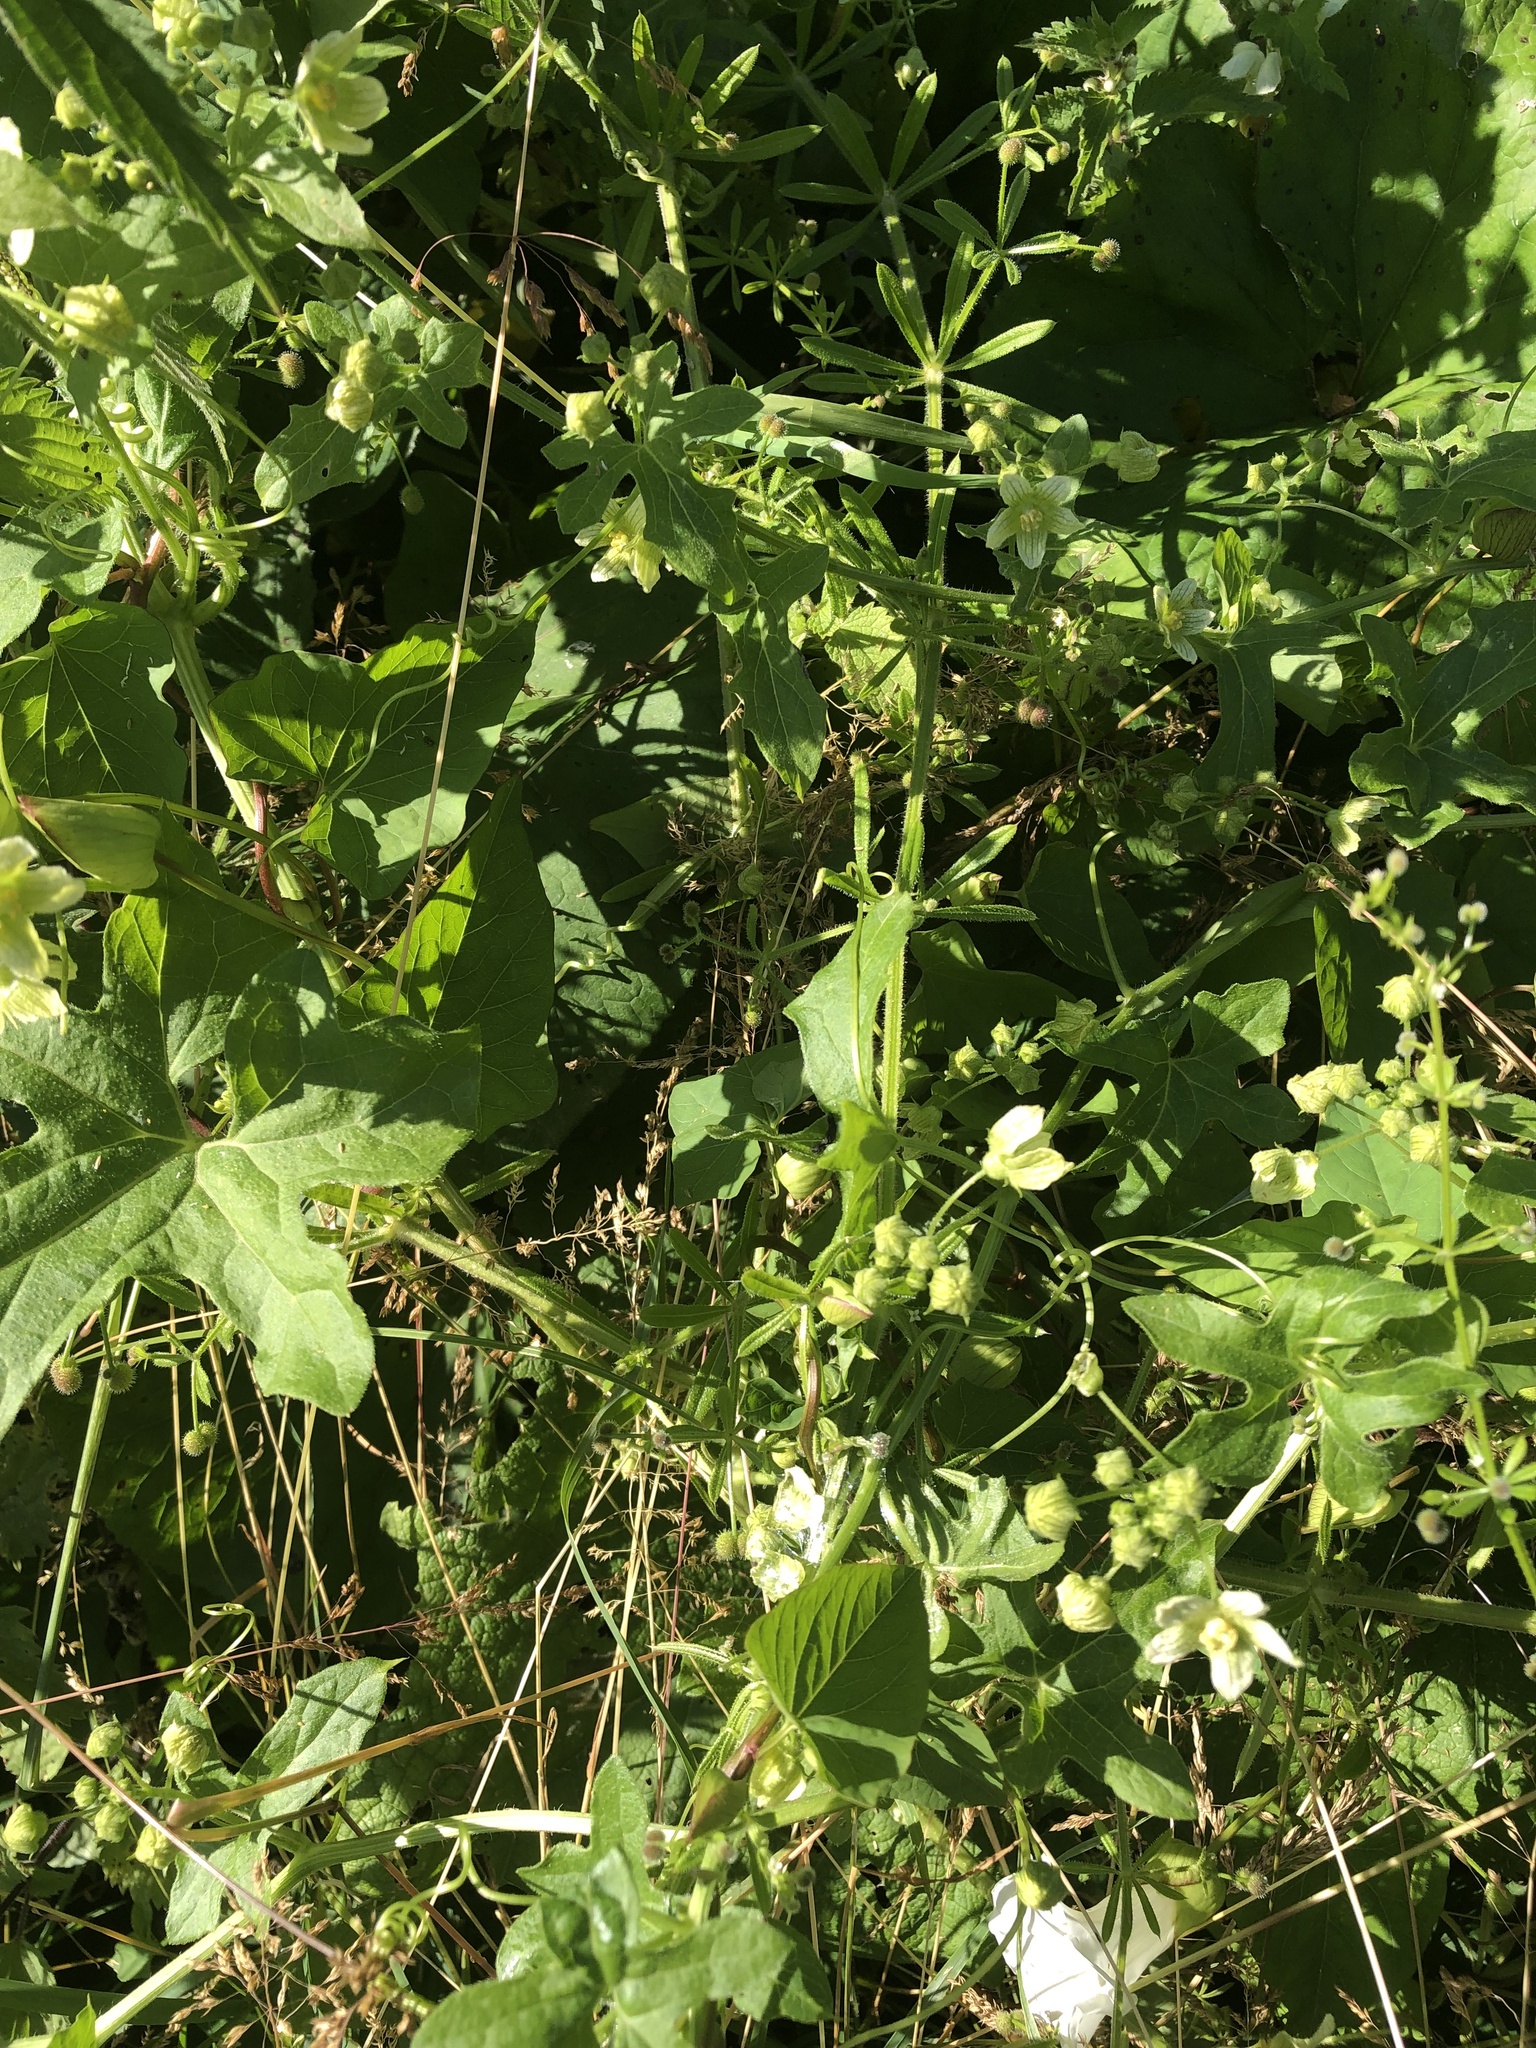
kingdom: Plantae
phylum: Tracheophyta
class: Magnoliopsida
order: Cucurbitales
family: Cucurbitaceae
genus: Bryonia
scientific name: Bryonia cretica
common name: Cretan bryony
